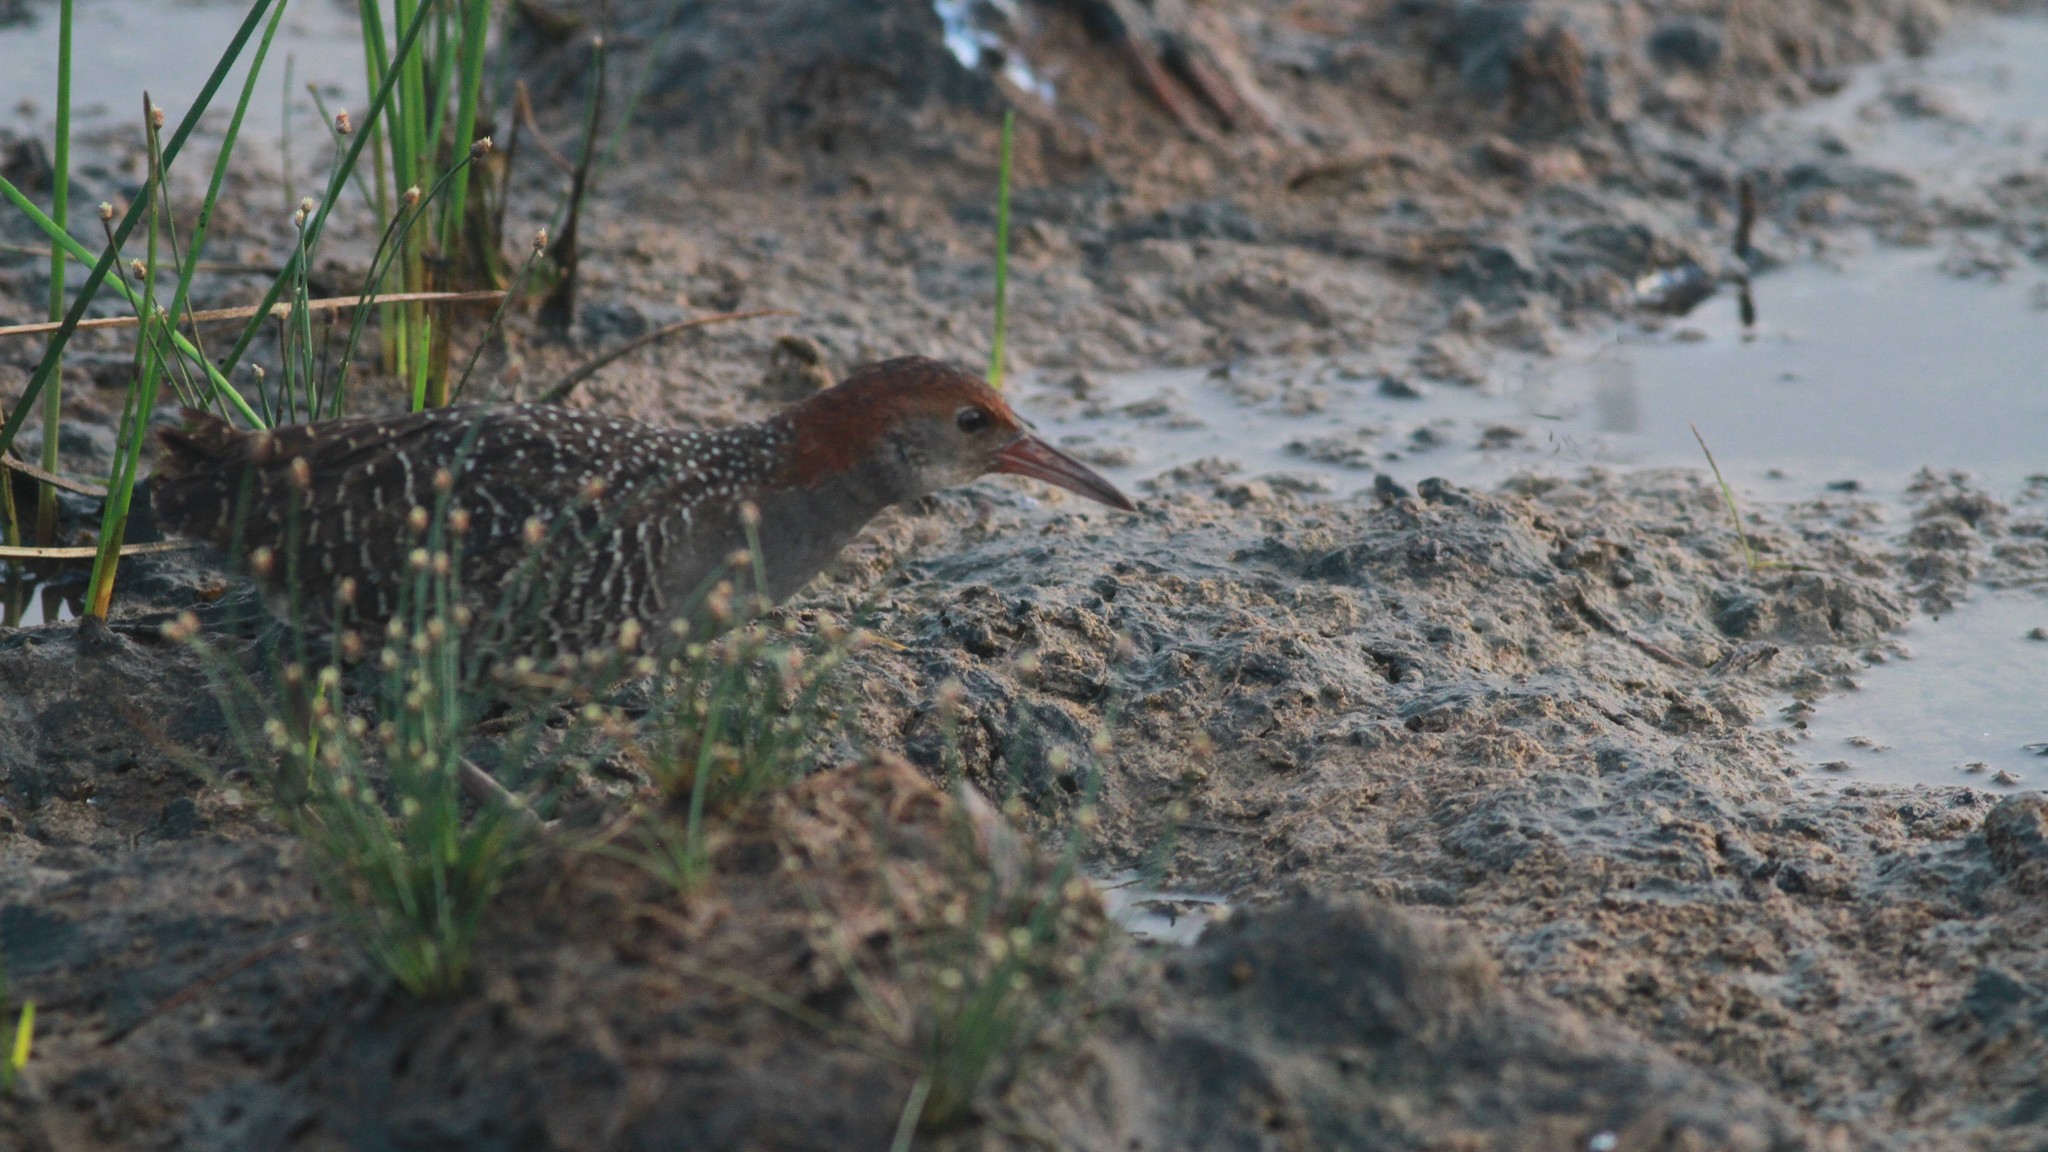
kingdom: Animalia
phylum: Chordata
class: Aves
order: Gruiformes
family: Rallidae
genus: Gallirallus
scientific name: Gallirallus striatus
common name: Slaty-breasted rail
